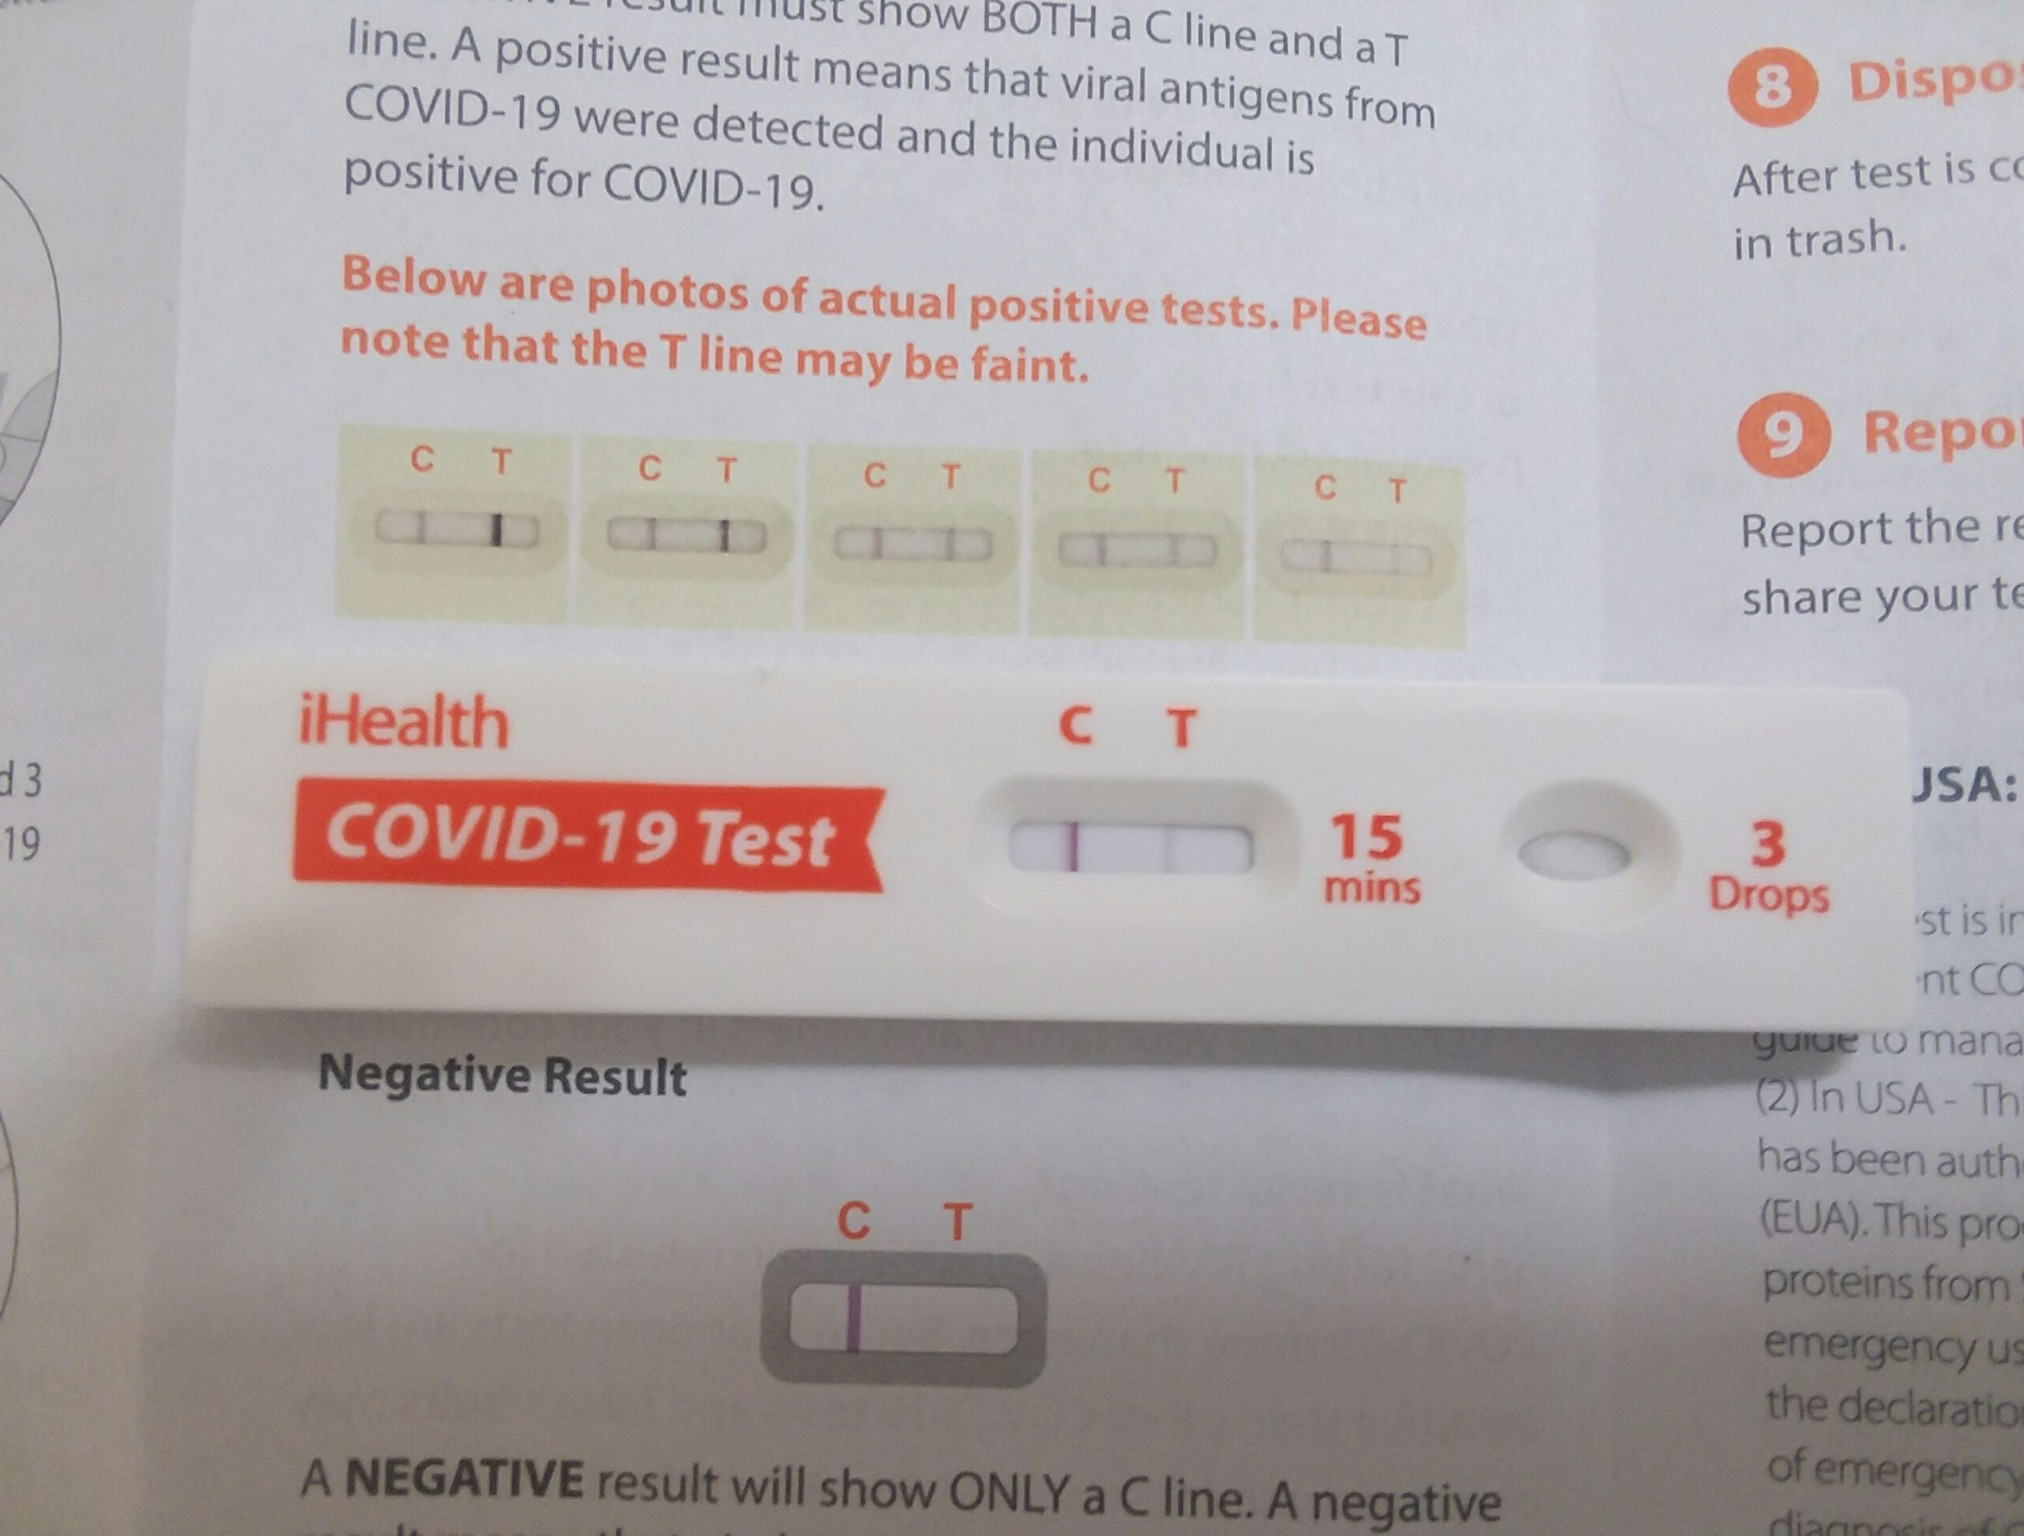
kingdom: Viruses
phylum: Pisuviricota
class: Pisoniviricetes
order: Nidovirales
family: Coronaviridae
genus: Betacoronavirus
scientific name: Betacoronavirus
